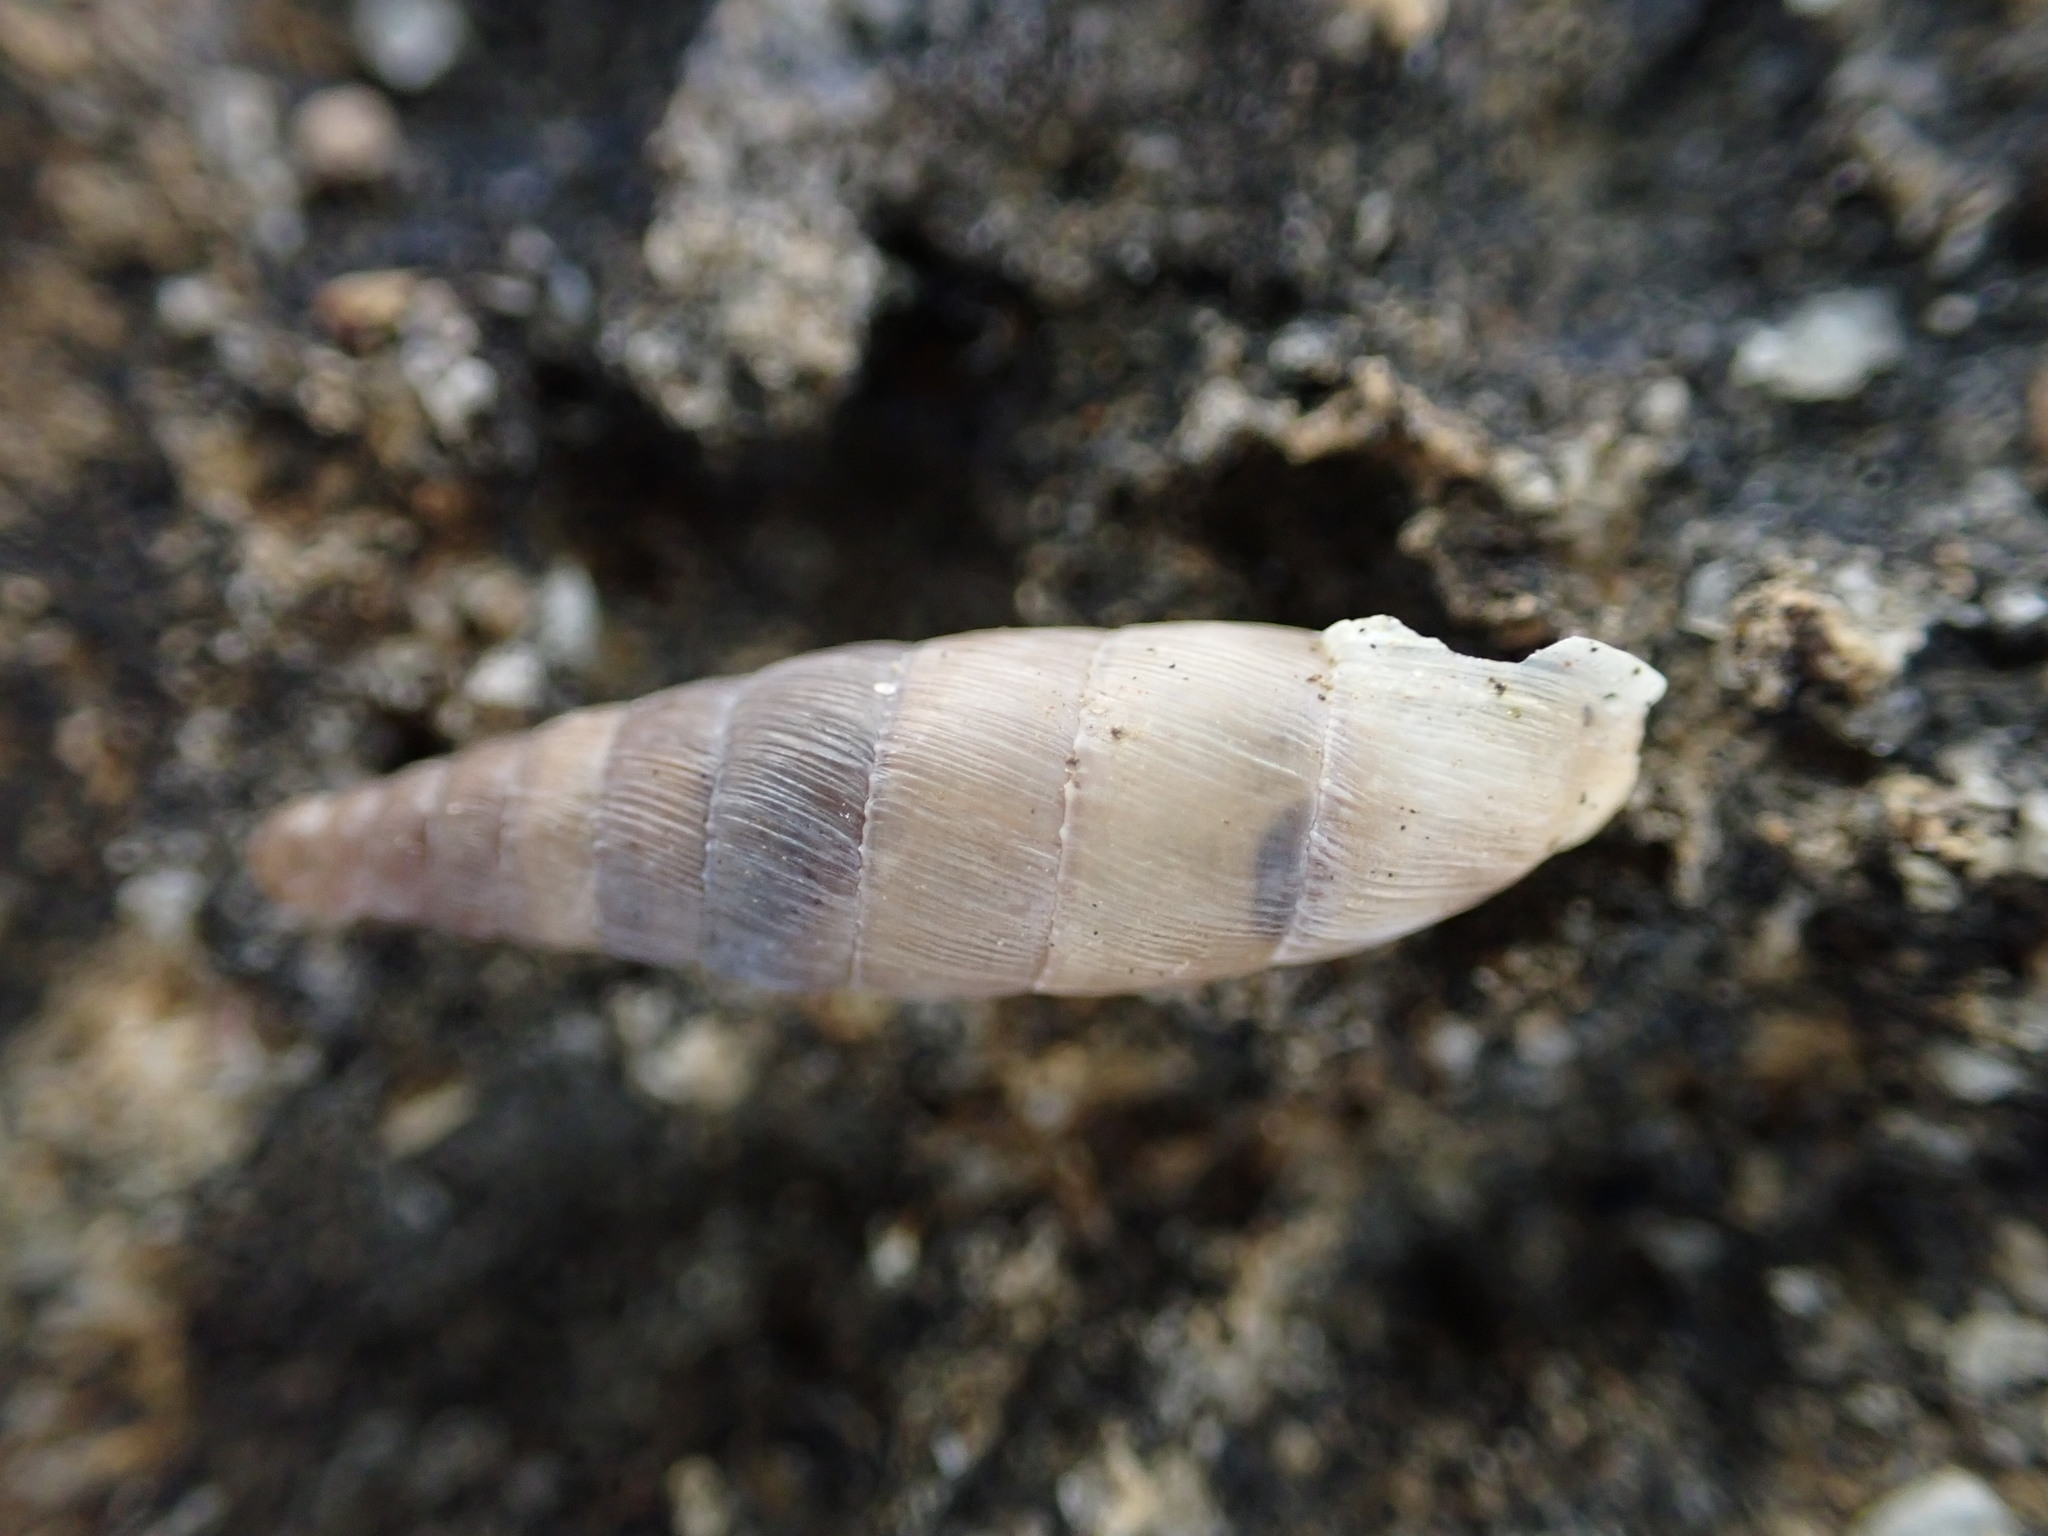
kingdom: Animalia
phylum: Mollusca
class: Gastropoda
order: Stylommatophora
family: Clausiliidae
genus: Papillifera
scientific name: Papillifera solida
